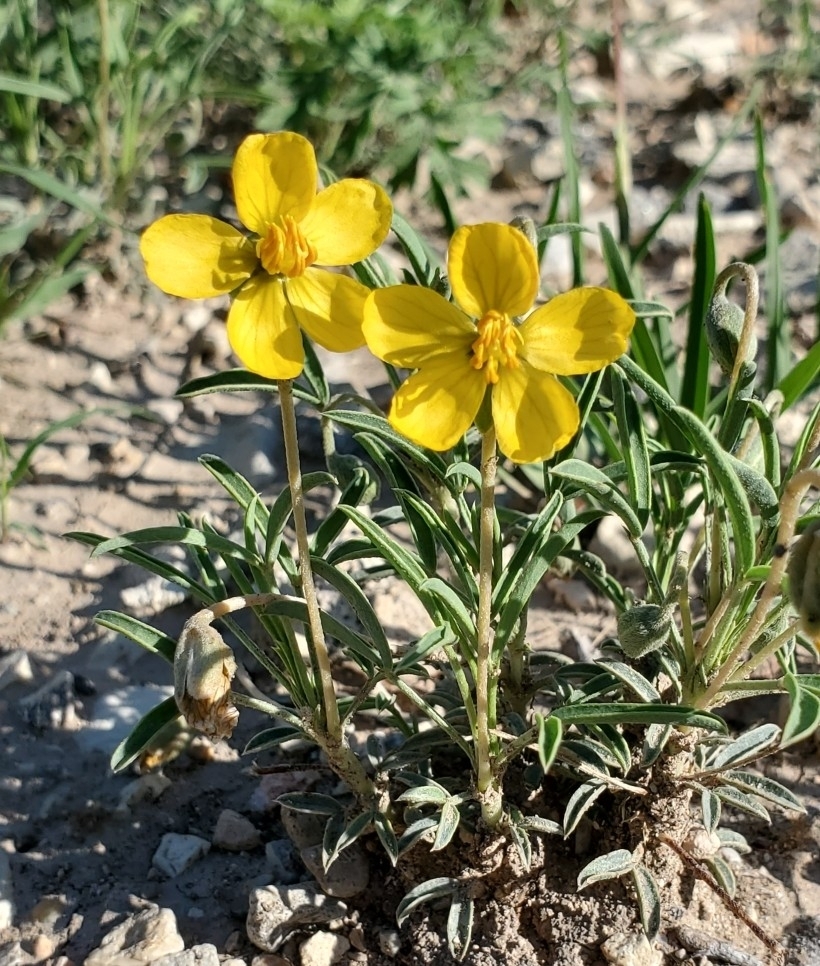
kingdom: Plantae
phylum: Tracheophyta
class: Magnoliopsida
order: Fabales
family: Fabaceae
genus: Senna
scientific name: Senna pumilio
